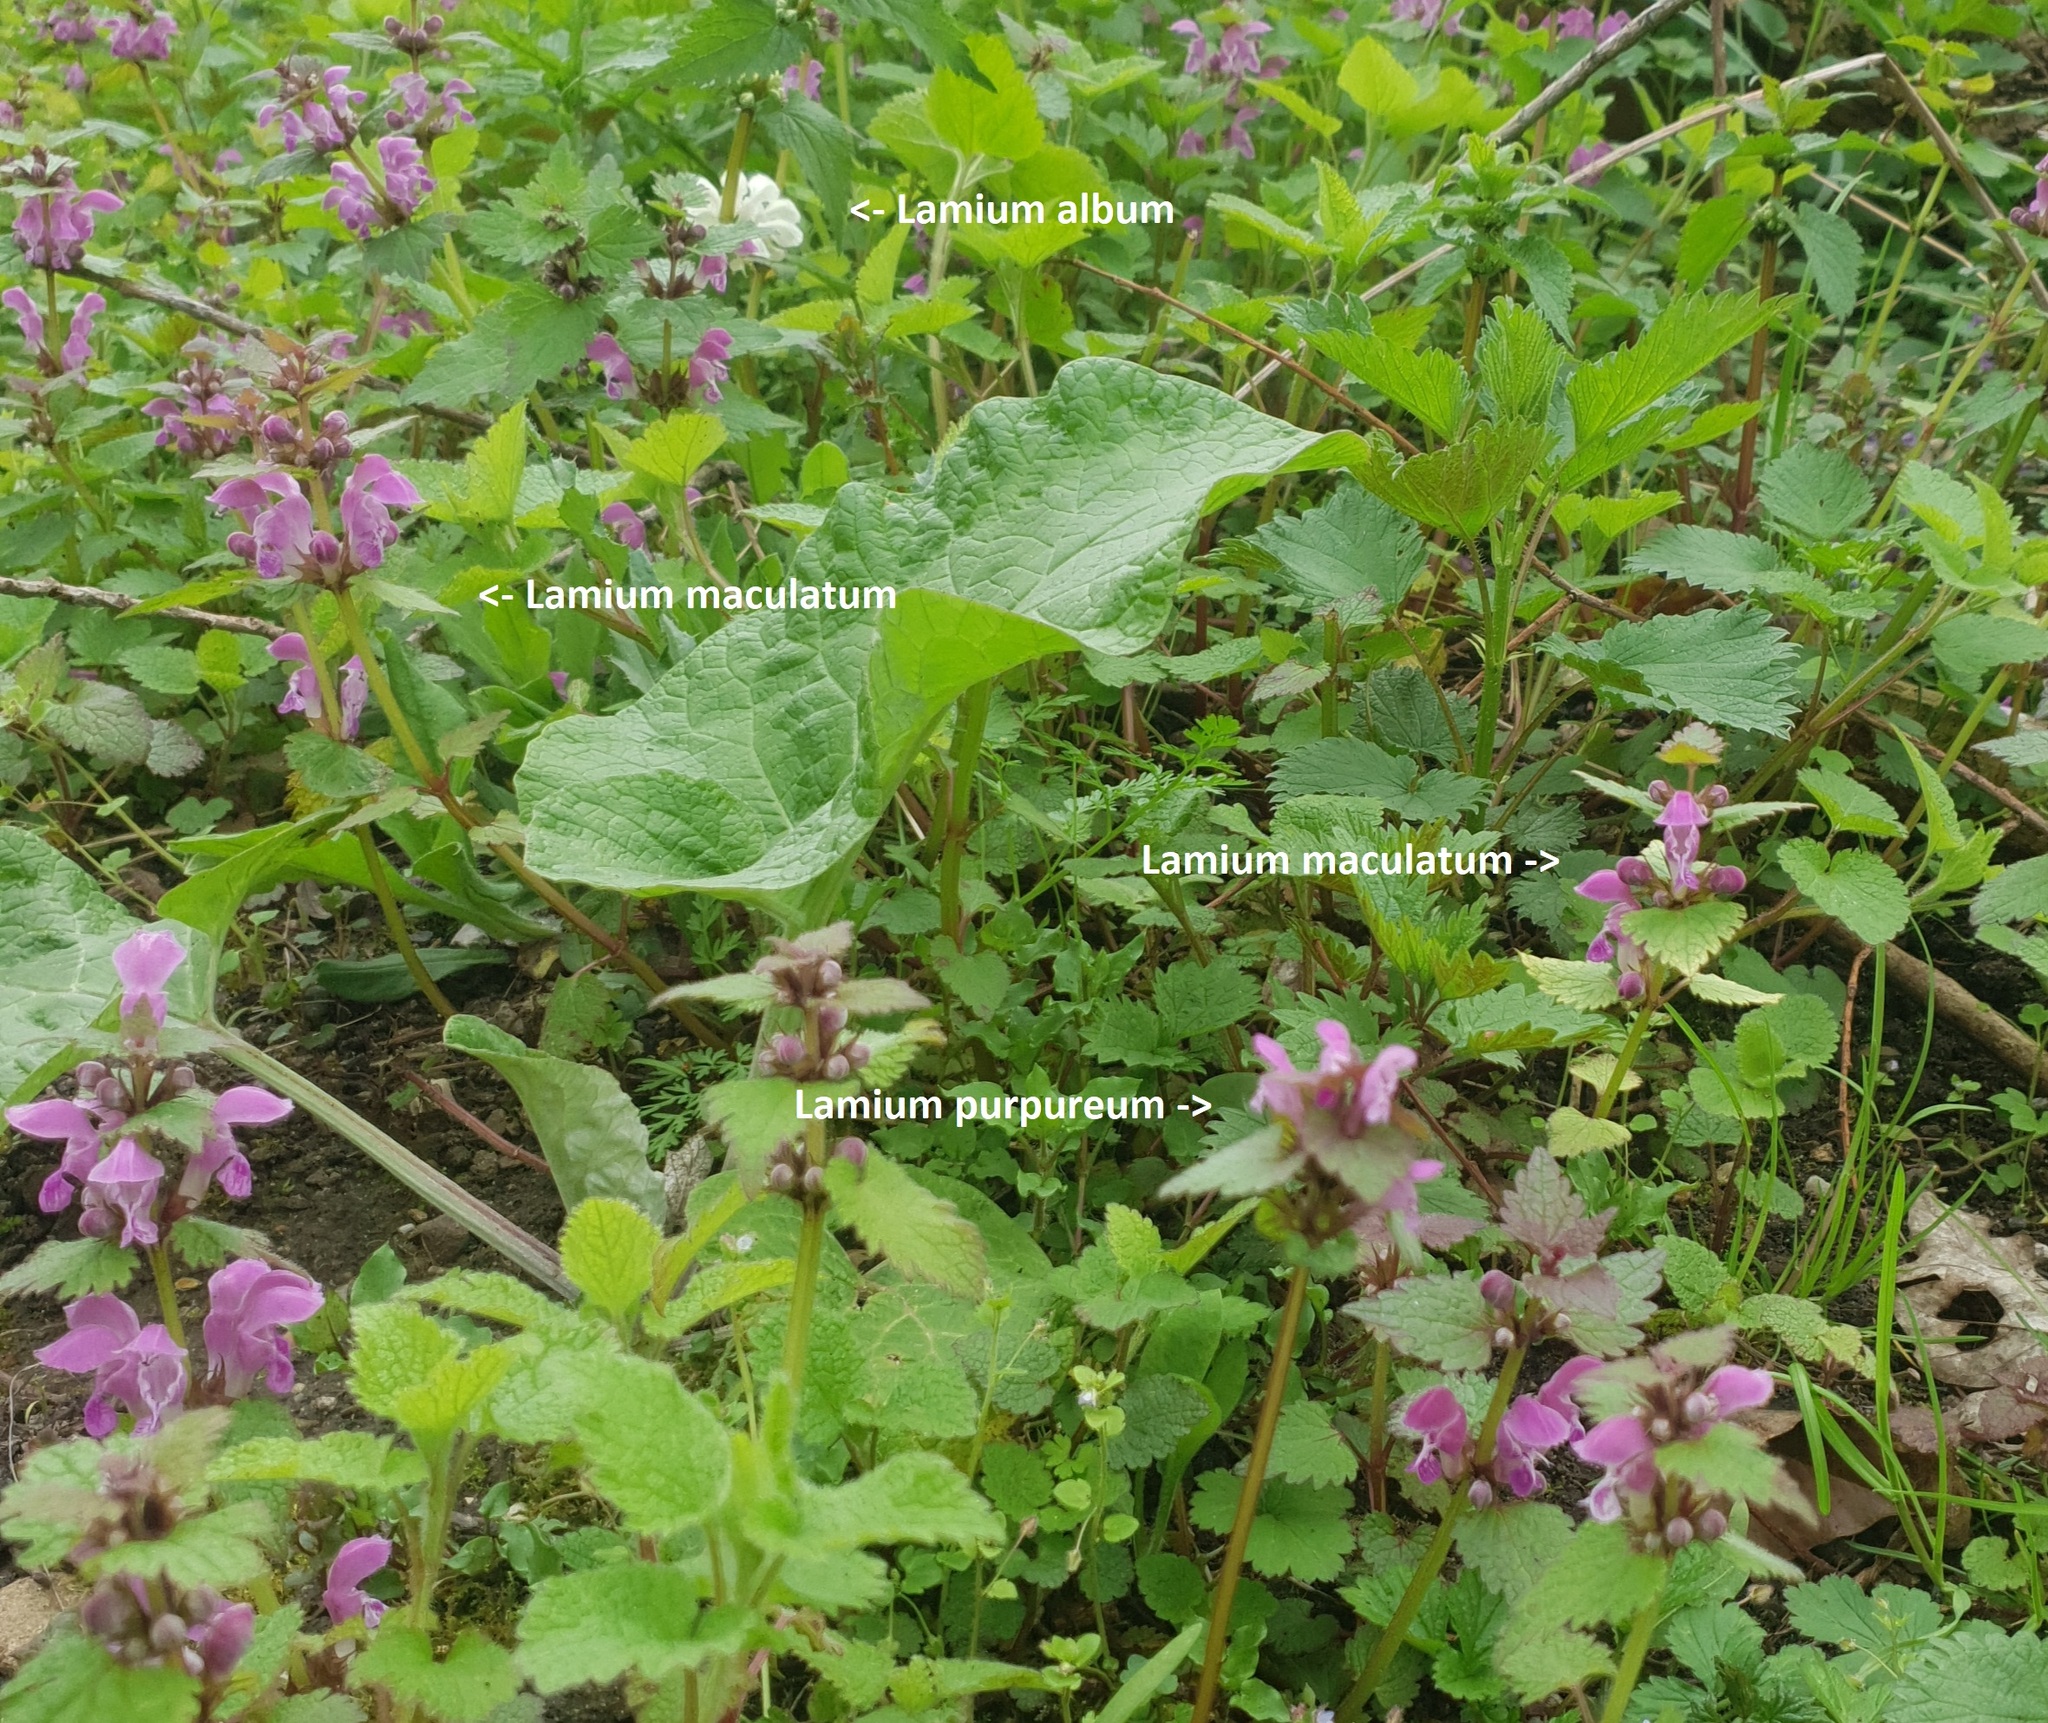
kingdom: Plantae
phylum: Tracheophyta
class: Magnoliopsida
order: Lamiales
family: Lamiaceae
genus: Lamium
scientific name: Lamium purpureum
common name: Red dead-nettle
